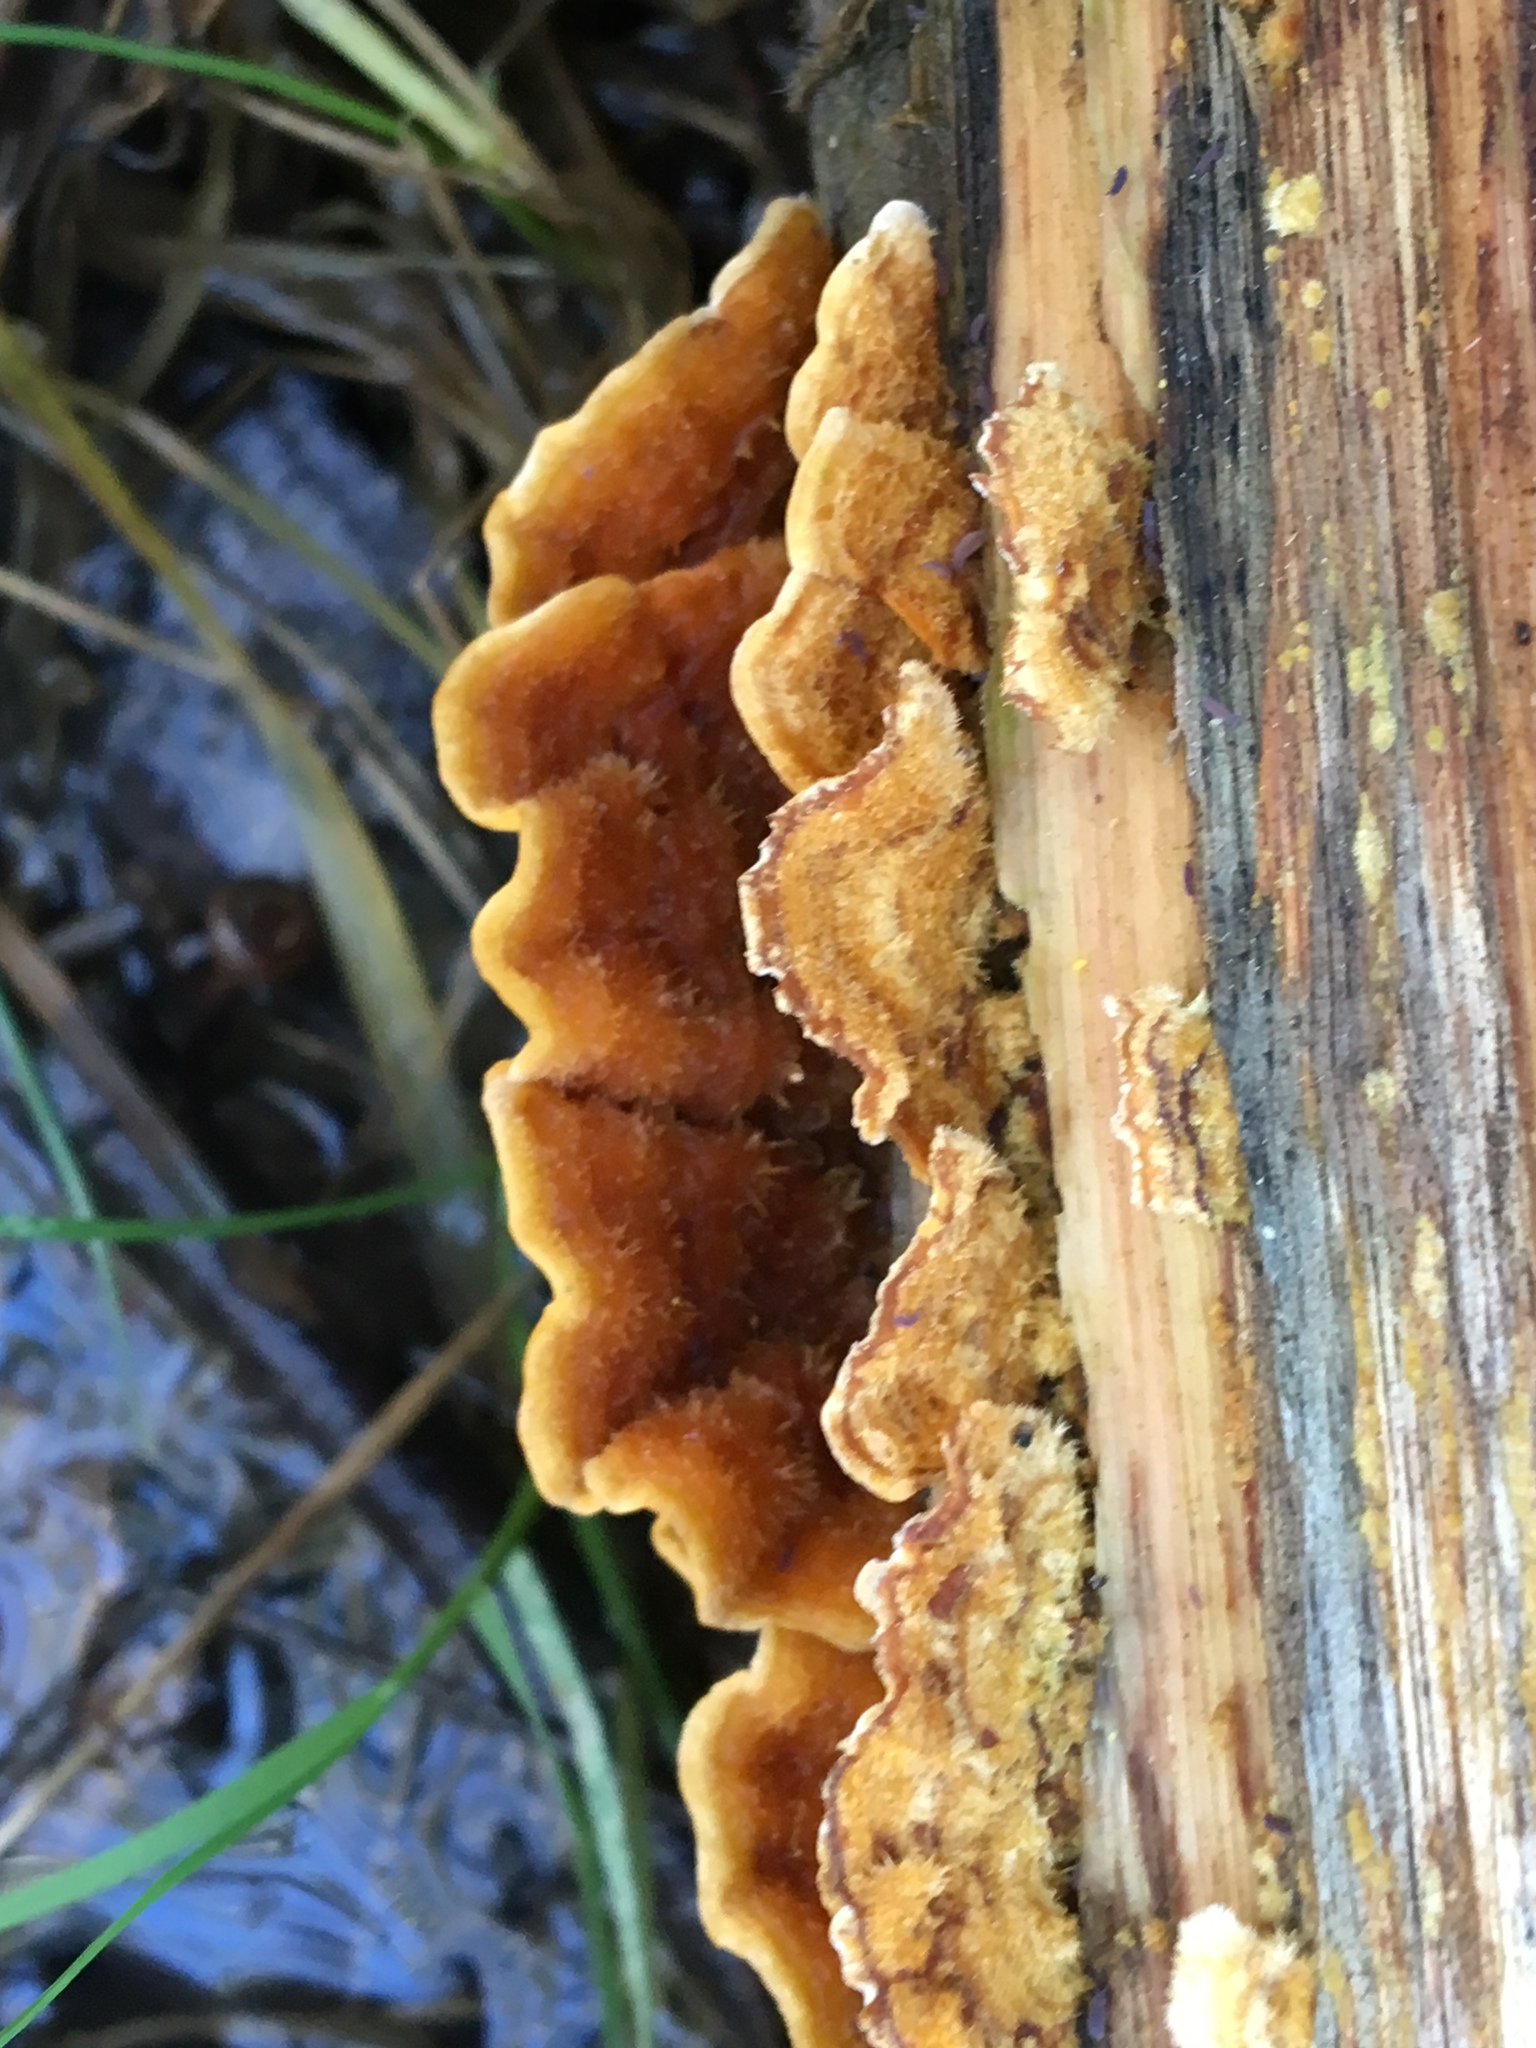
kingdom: Fungi
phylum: Basidiomycota
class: Agaricomycetes
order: Russulales
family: Stereaceae
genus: Stereum
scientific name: Stereum hirsutum
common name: Hairy curtain crust
